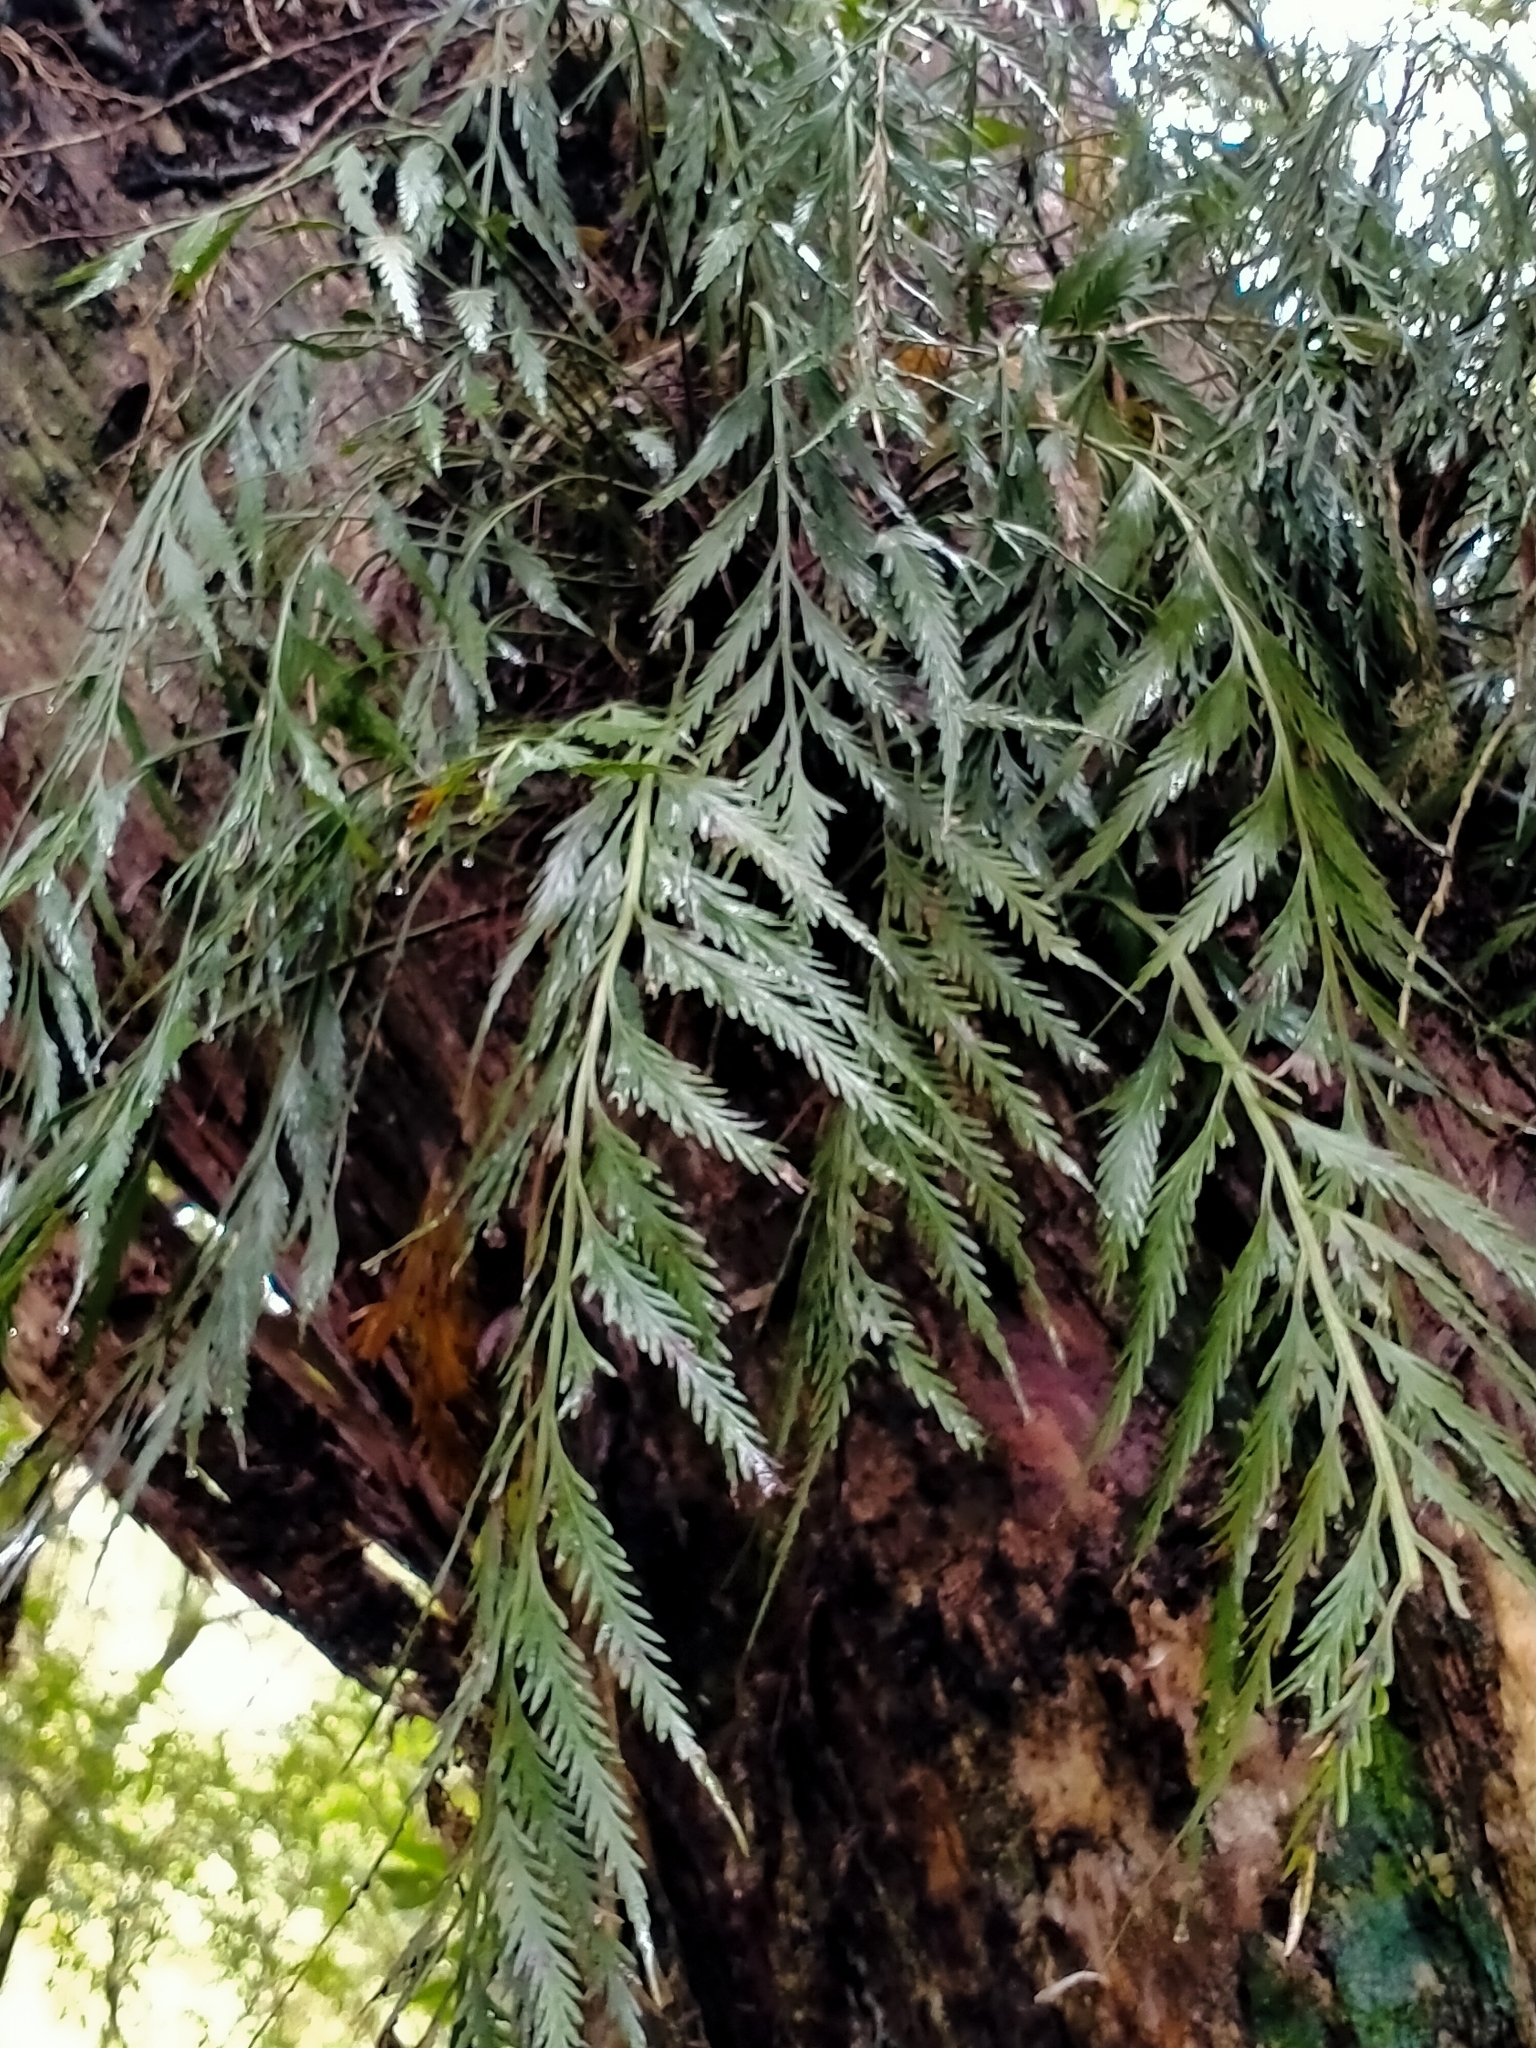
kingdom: Plantae
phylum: Tracheophyta
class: Polypodiopsida
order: Polypodiales
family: Aspleniaceae
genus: Asplenium
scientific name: Asplenium flaccidum
